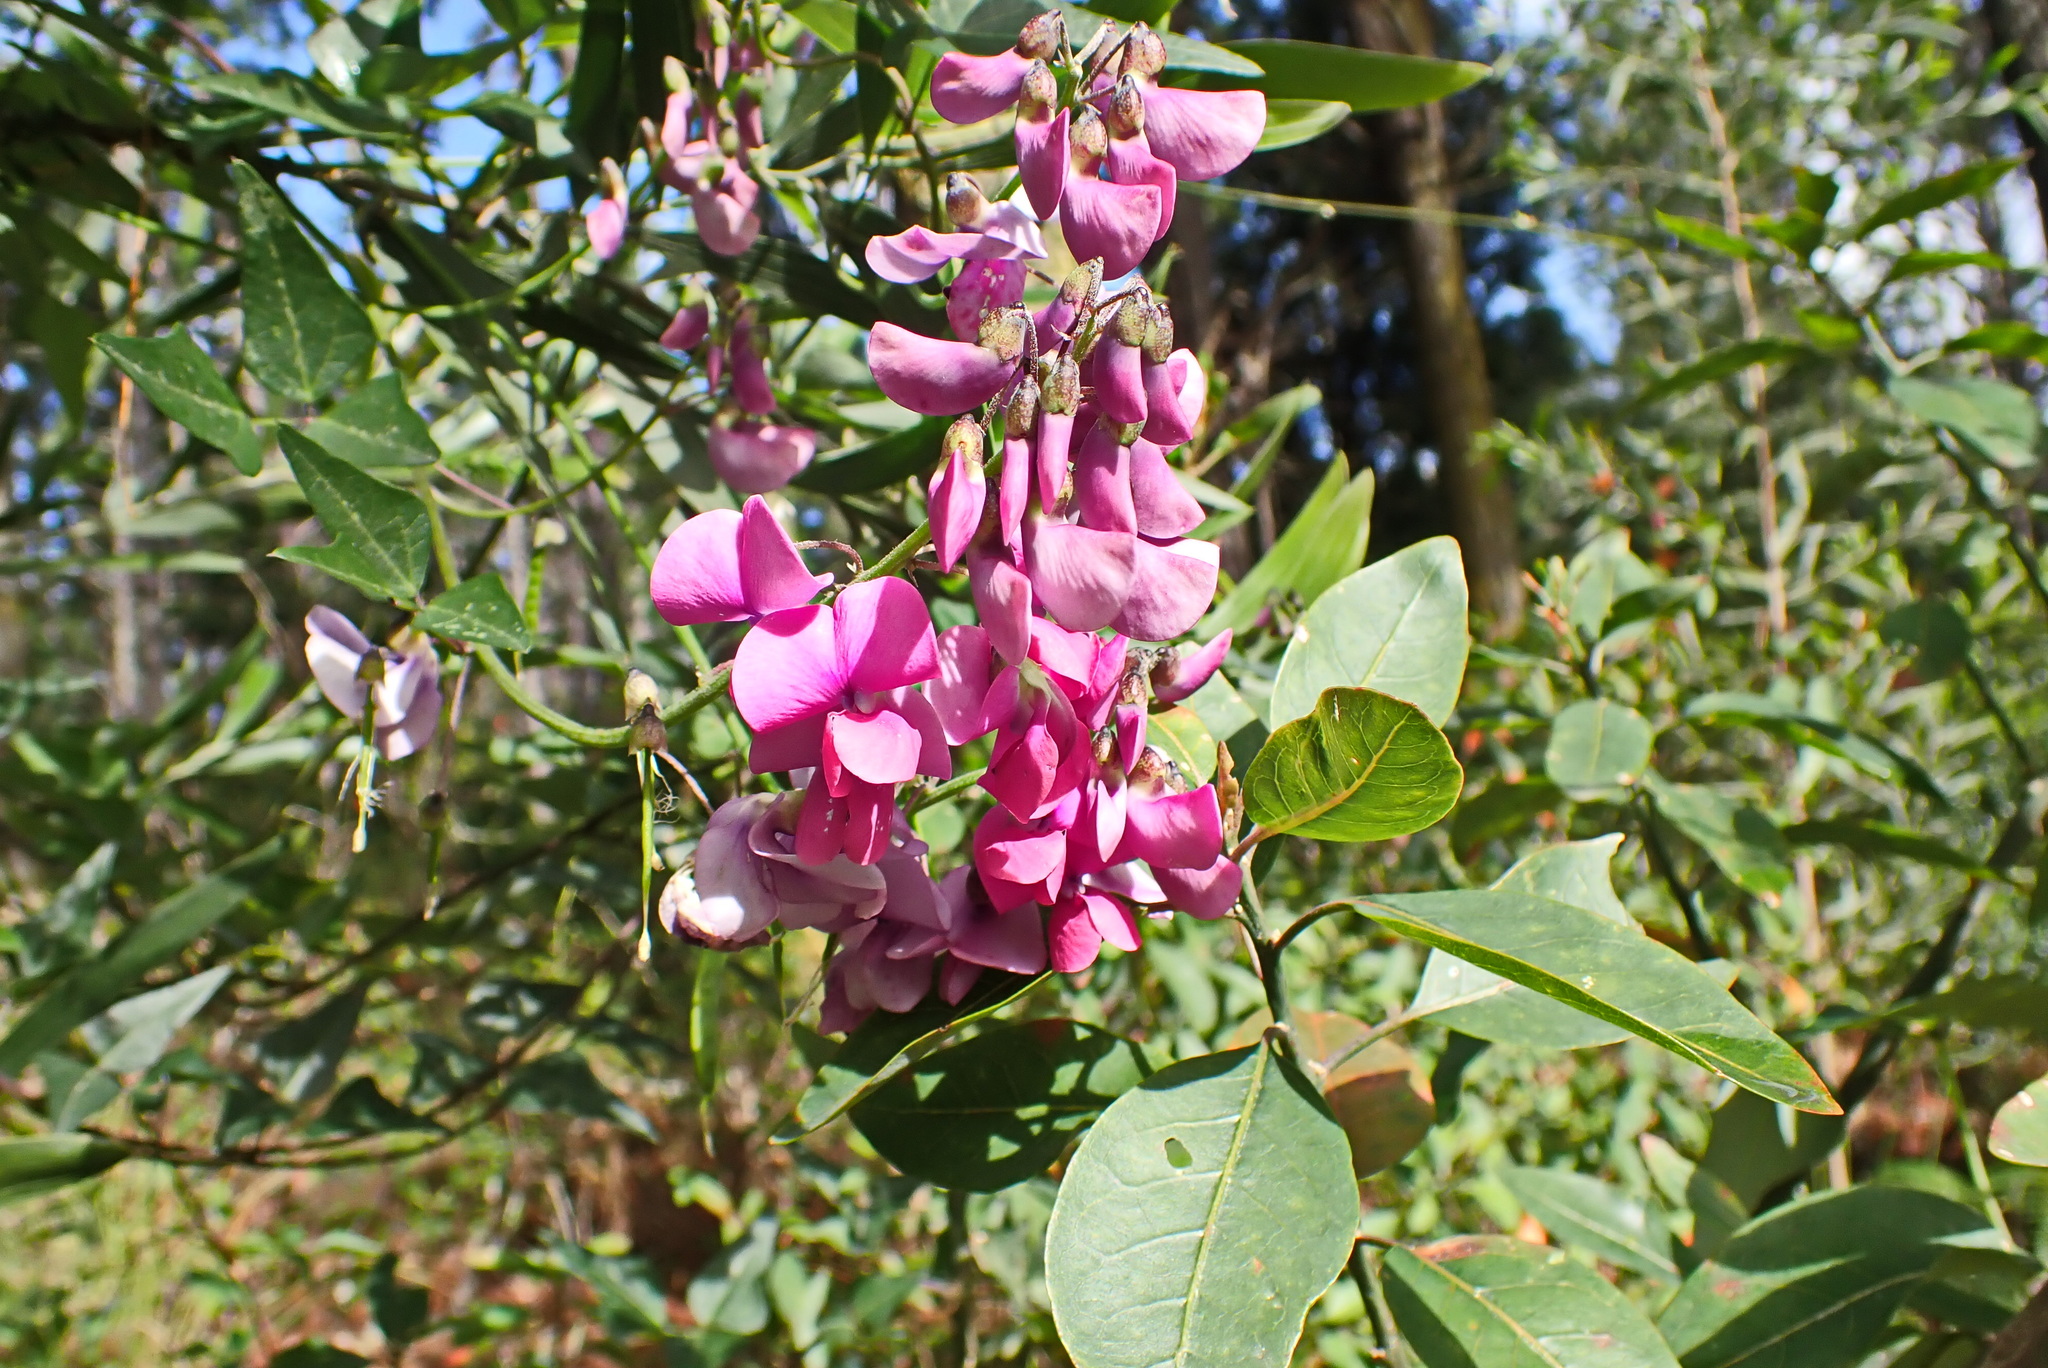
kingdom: Plantae
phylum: Tracheophyta
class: Magnoliopsida
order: Fabales
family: Fabaceae
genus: Dipogon
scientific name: Dipogon lignosus
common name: Okie bean
